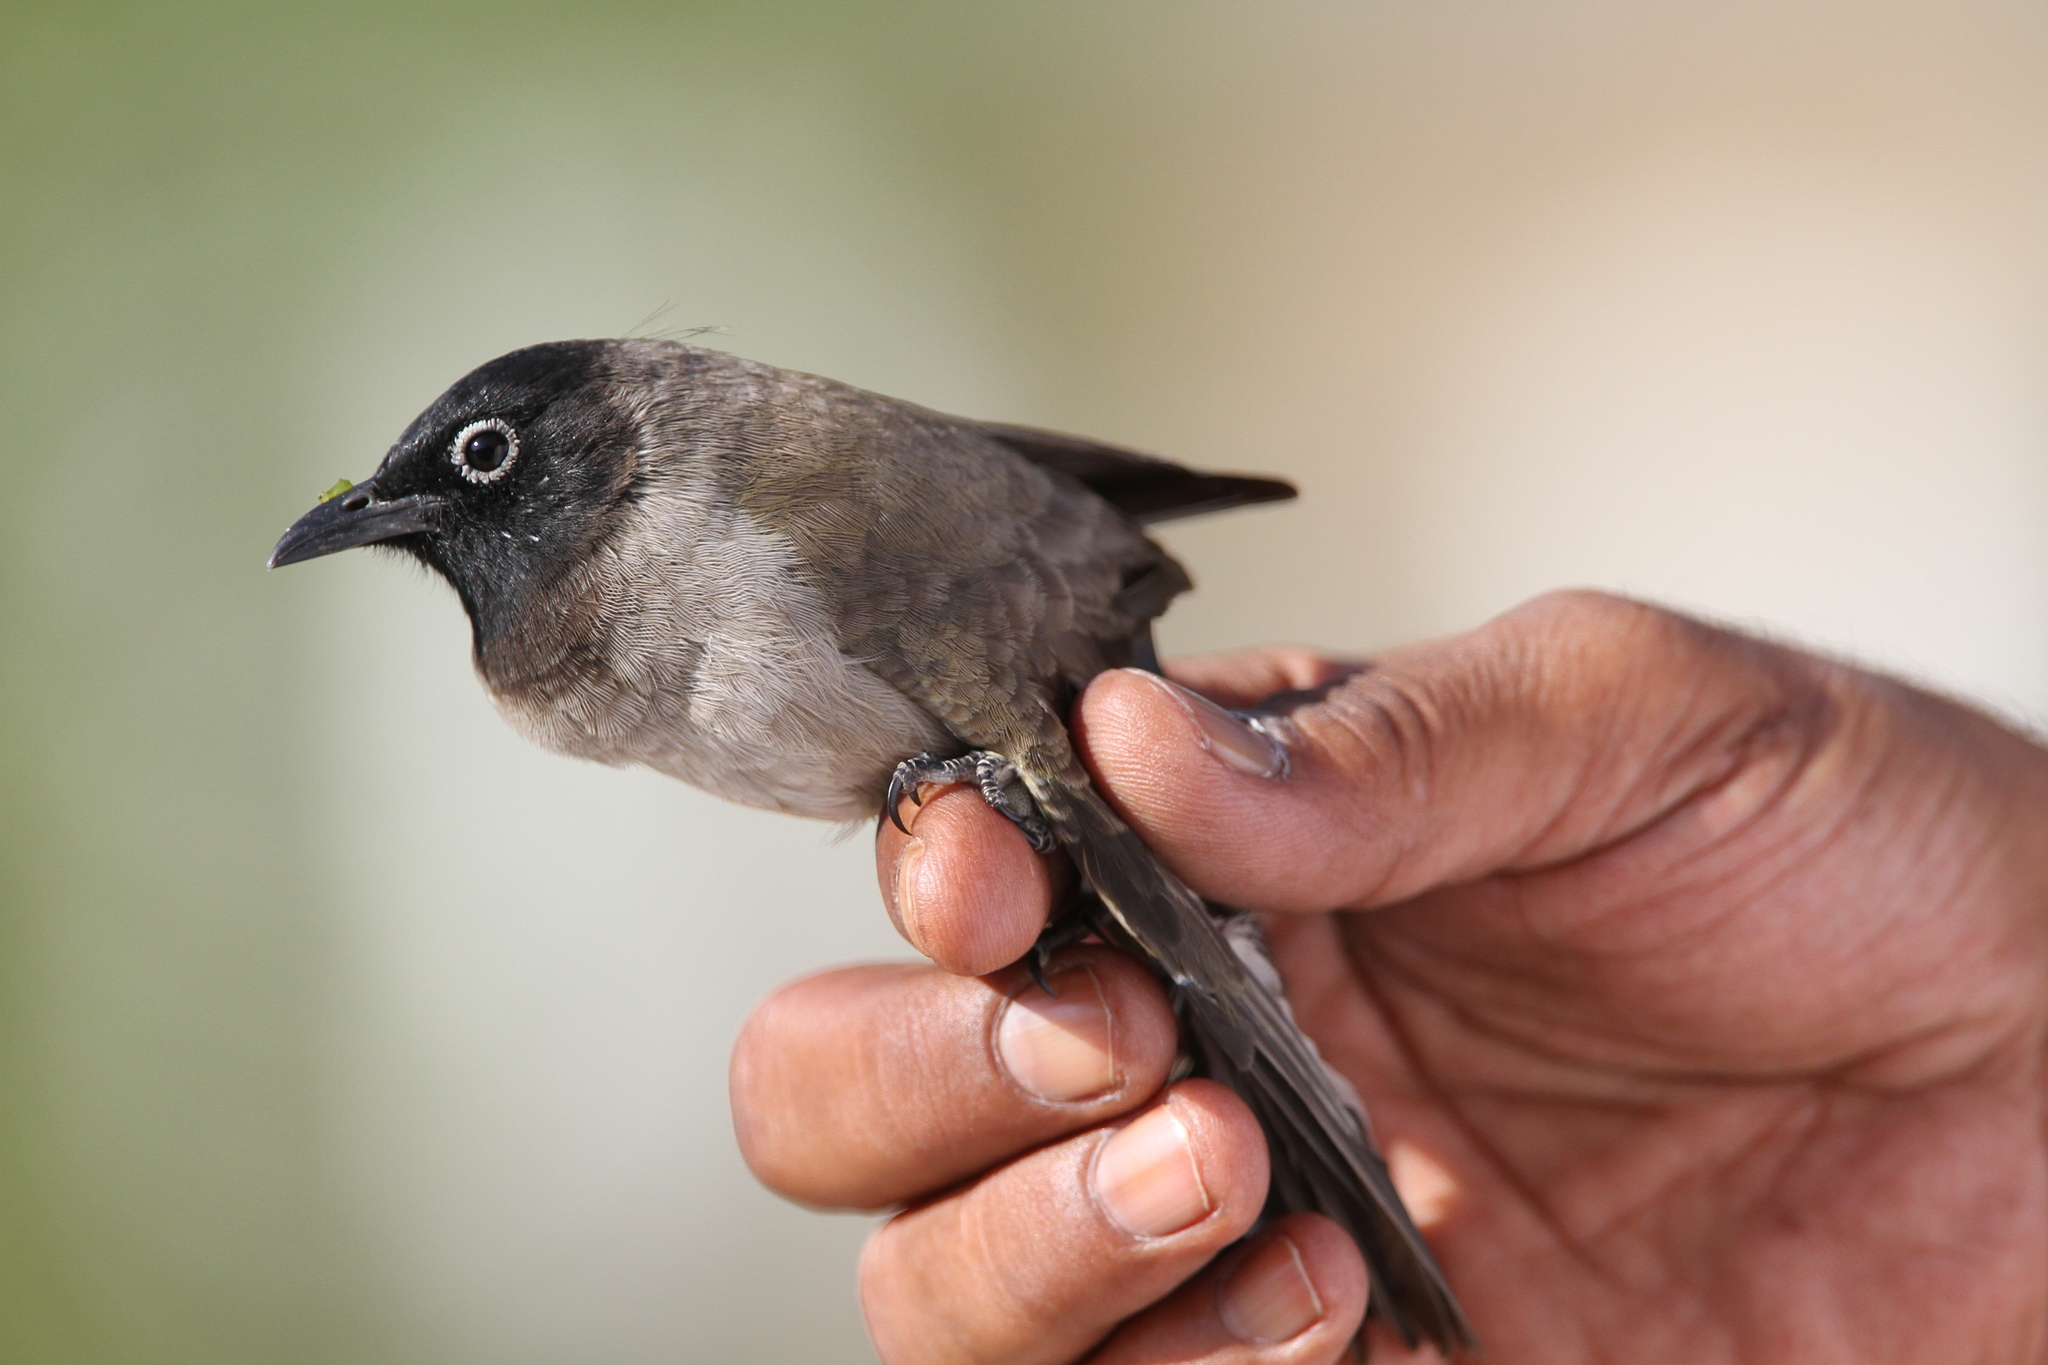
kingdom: Animalia
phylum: Chordata
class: Aves
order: Passeriformes
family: Pycnonotidae
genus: Pycnonotus
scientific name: Pycnonotus xanthopygos
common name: White-spectacled bulbul
